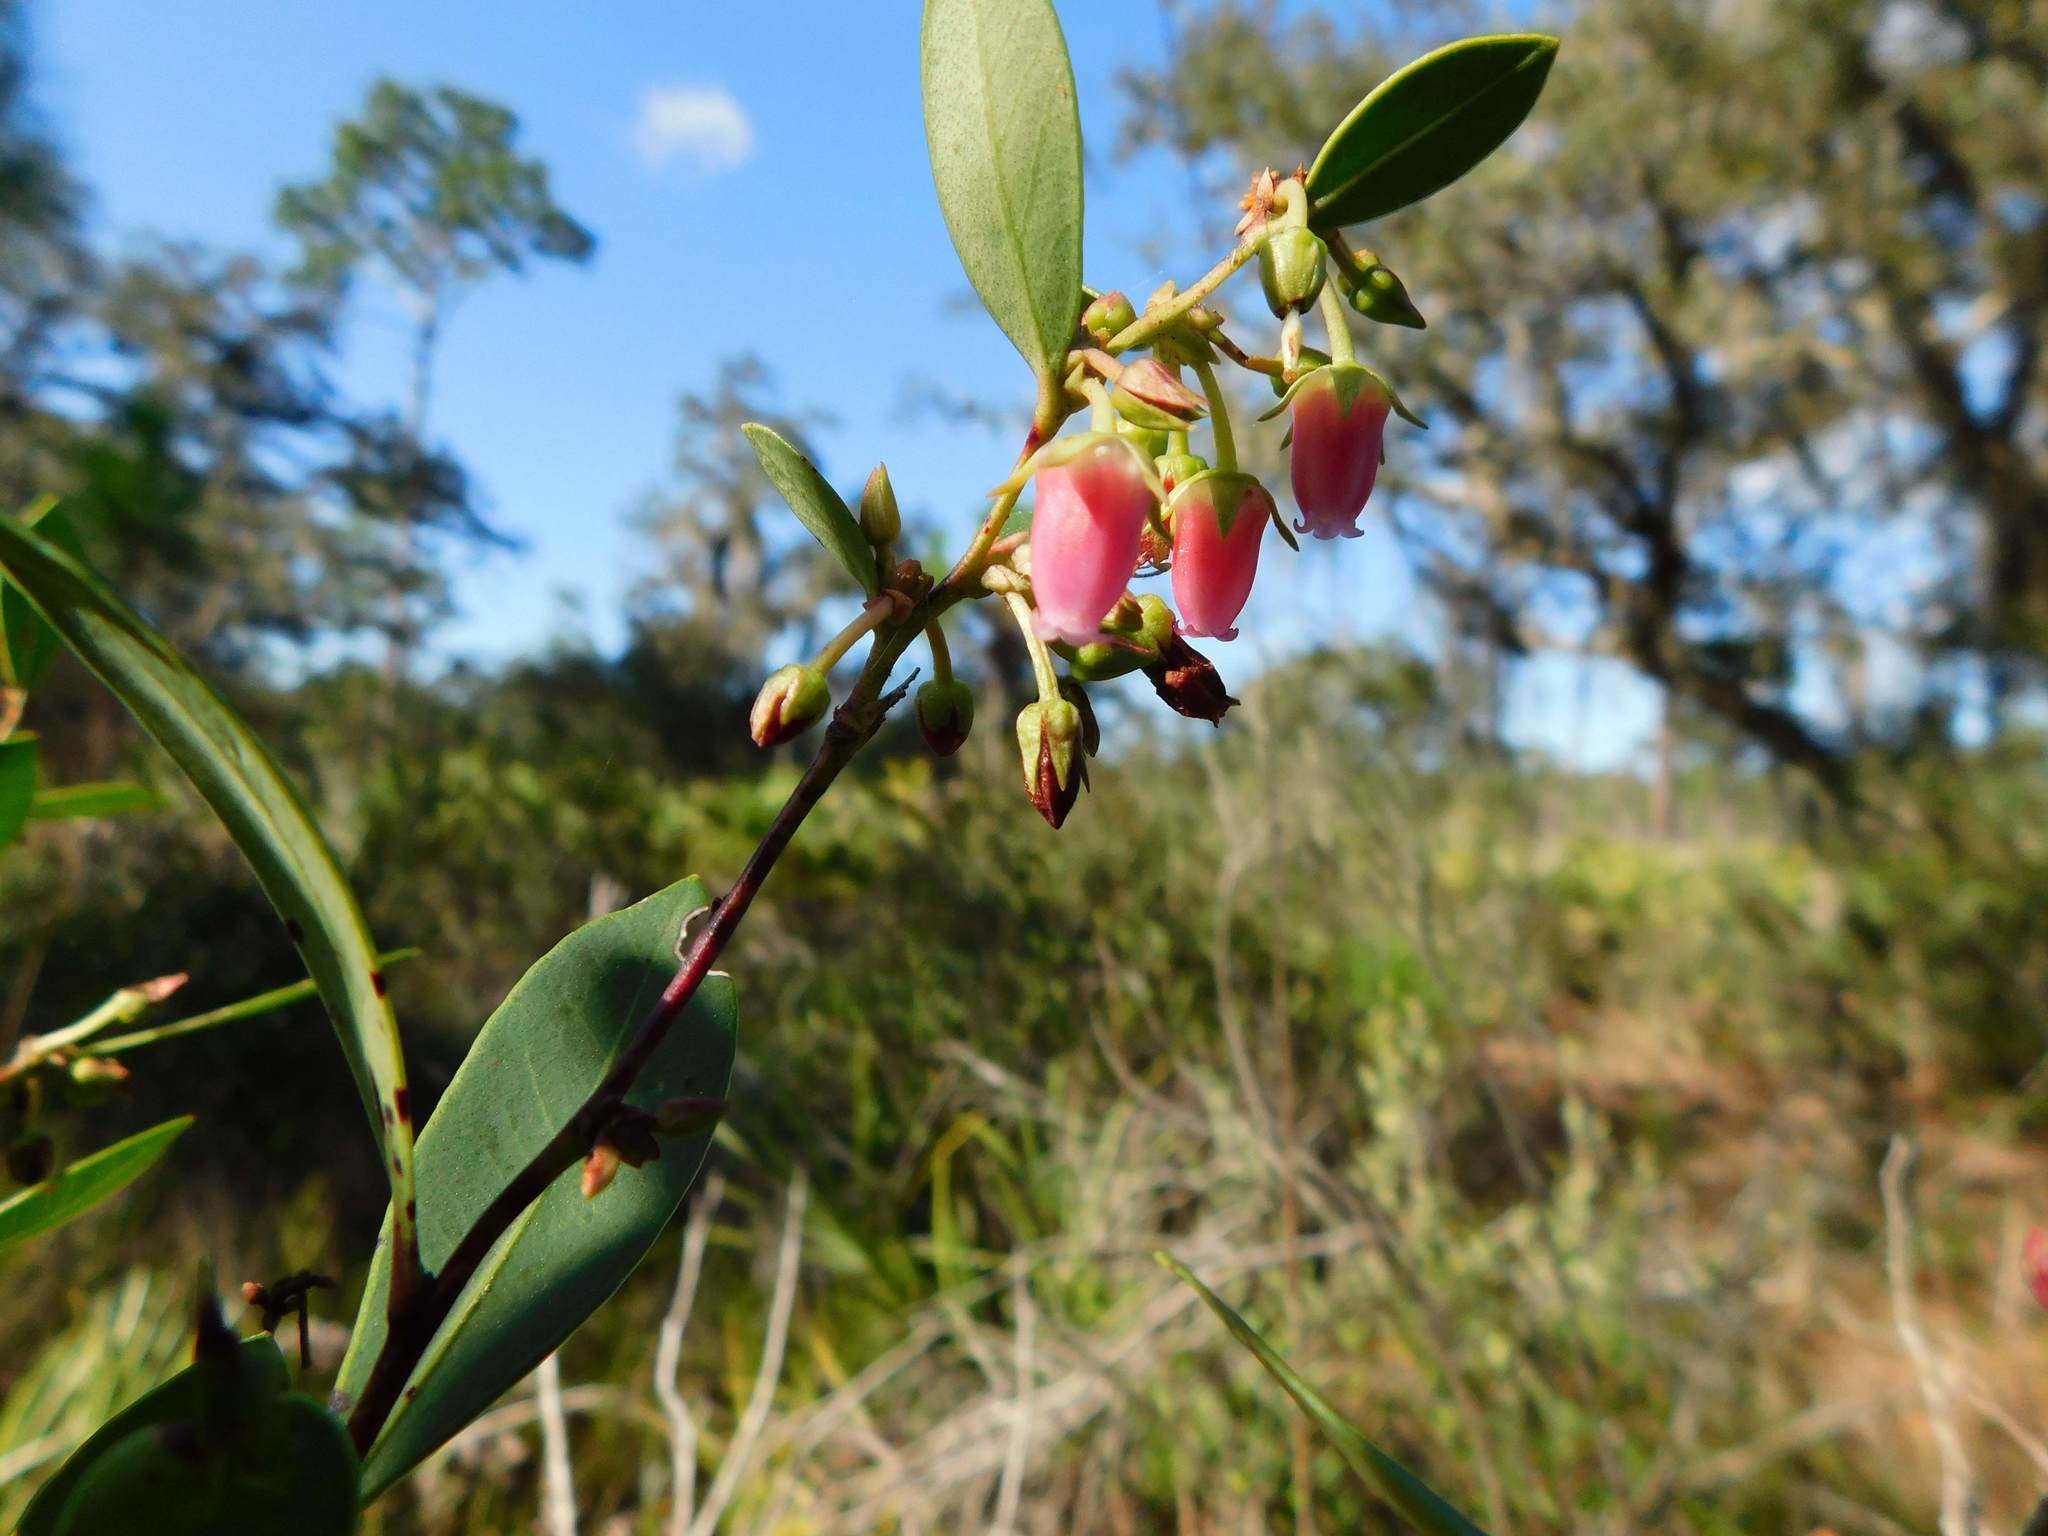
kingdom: Plantae
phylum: Tracheophyta
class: Magnoliopsida
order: Ericales
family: Ericaceae
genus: Lyonia
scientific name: Lyonia lucida
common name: Fetterbush
